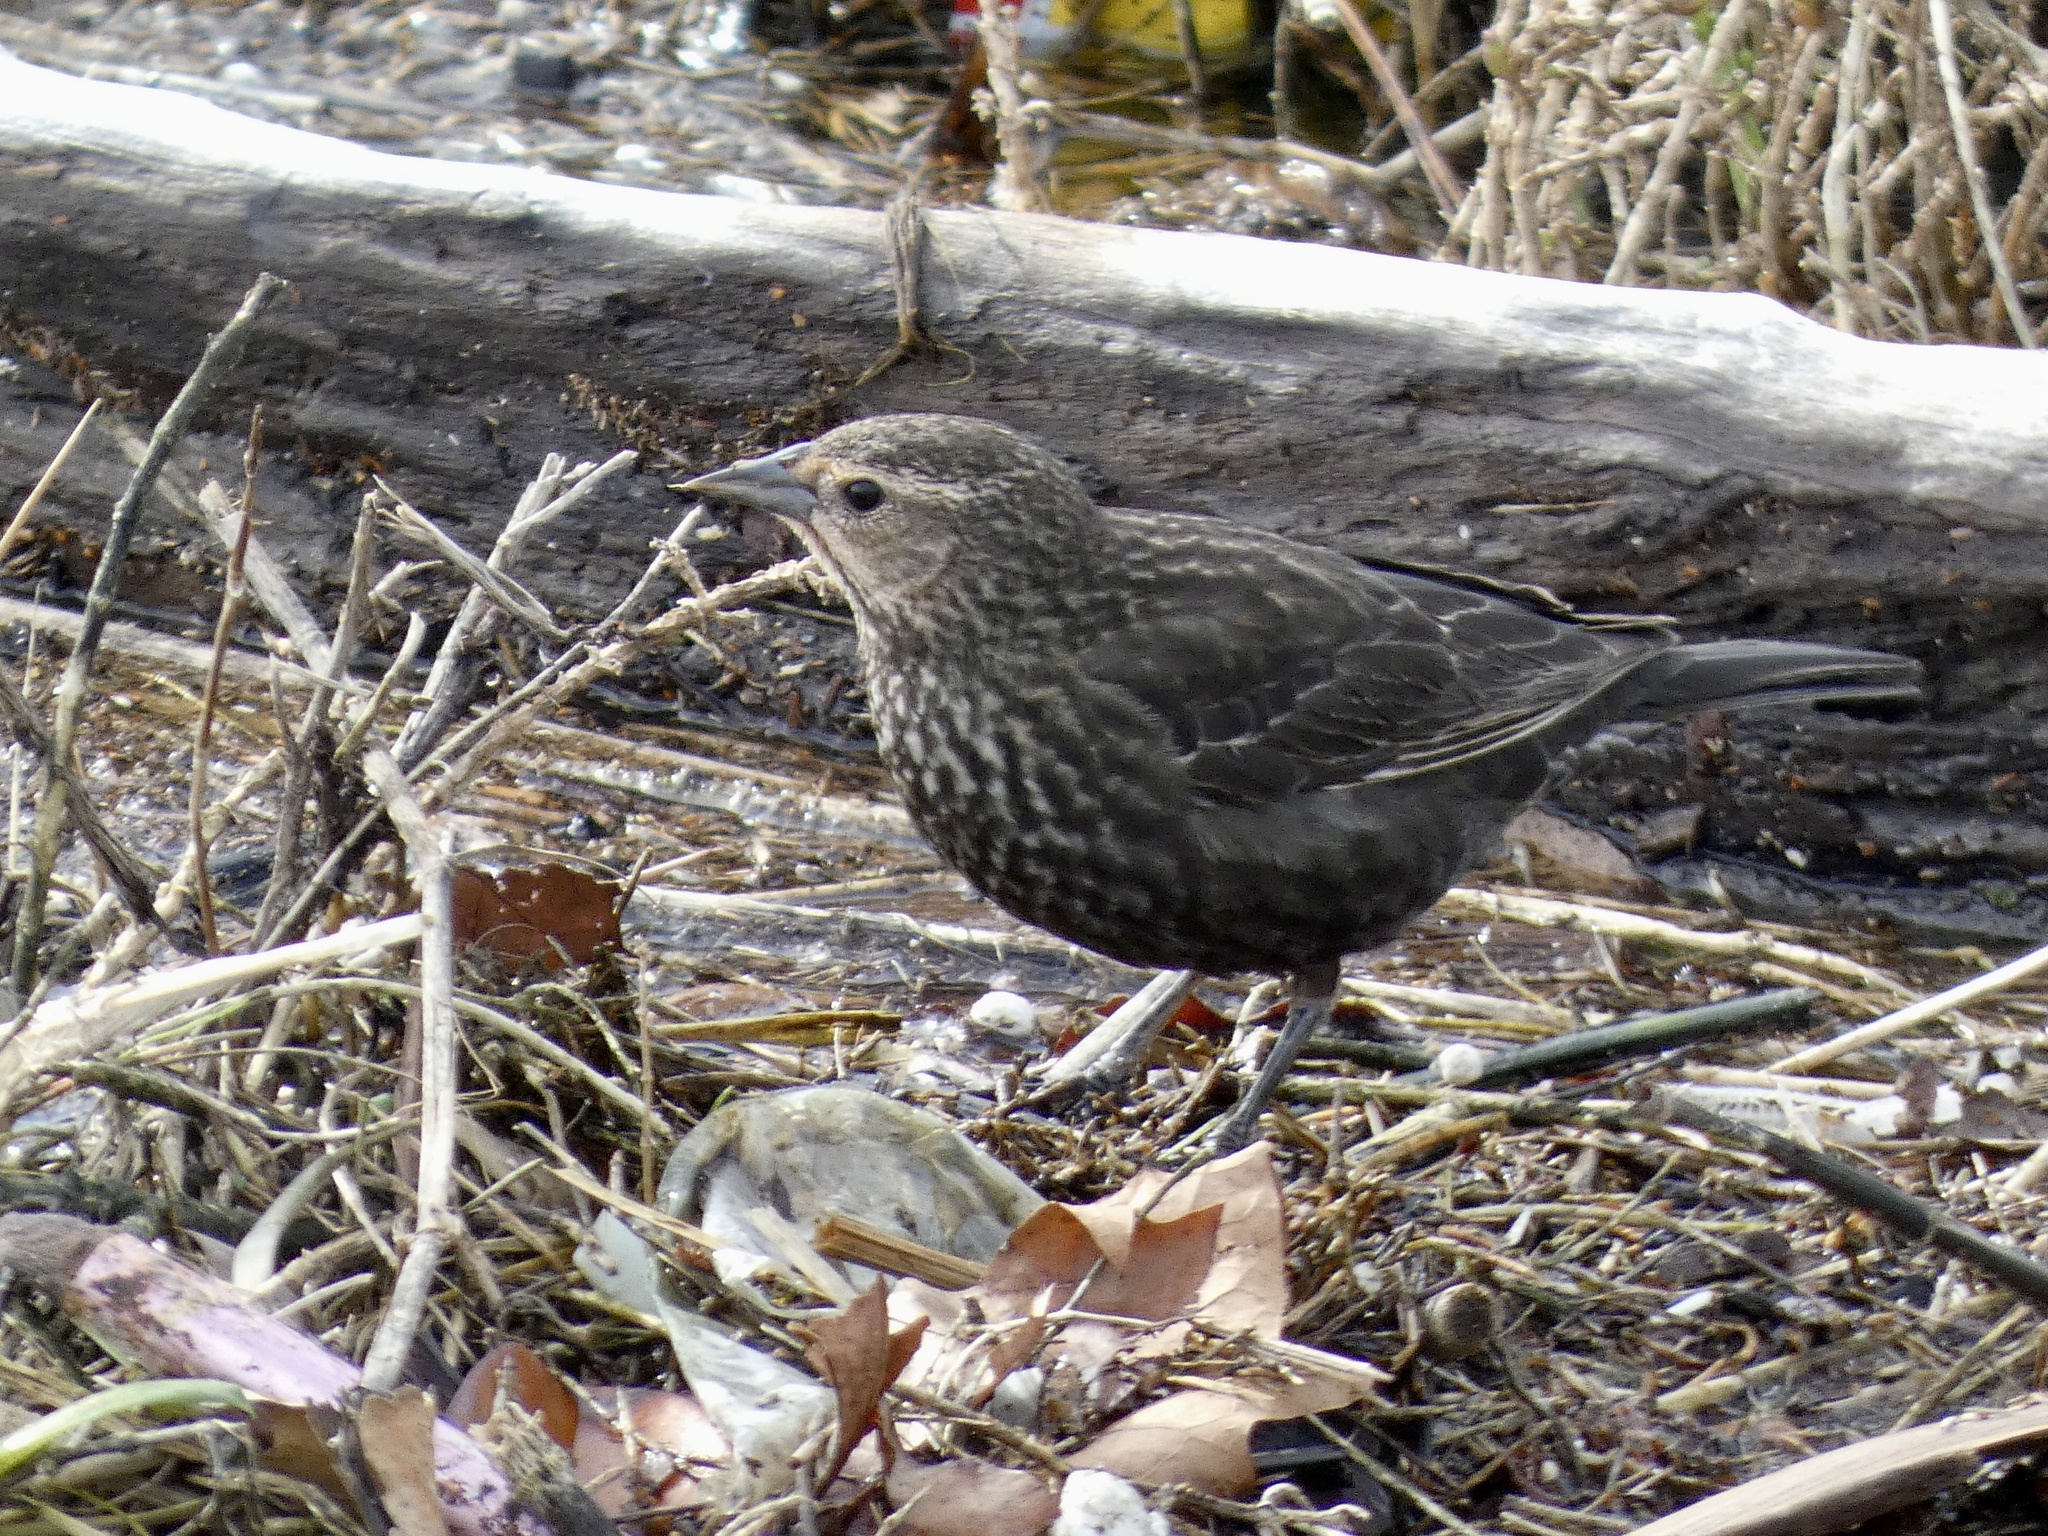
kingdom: Animalia
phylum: Chordata
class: Aves
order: Passeriformes
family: Icteridae
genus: Agelaius
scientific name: Agelaius phoeniceus
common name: Red-winged blackbird
